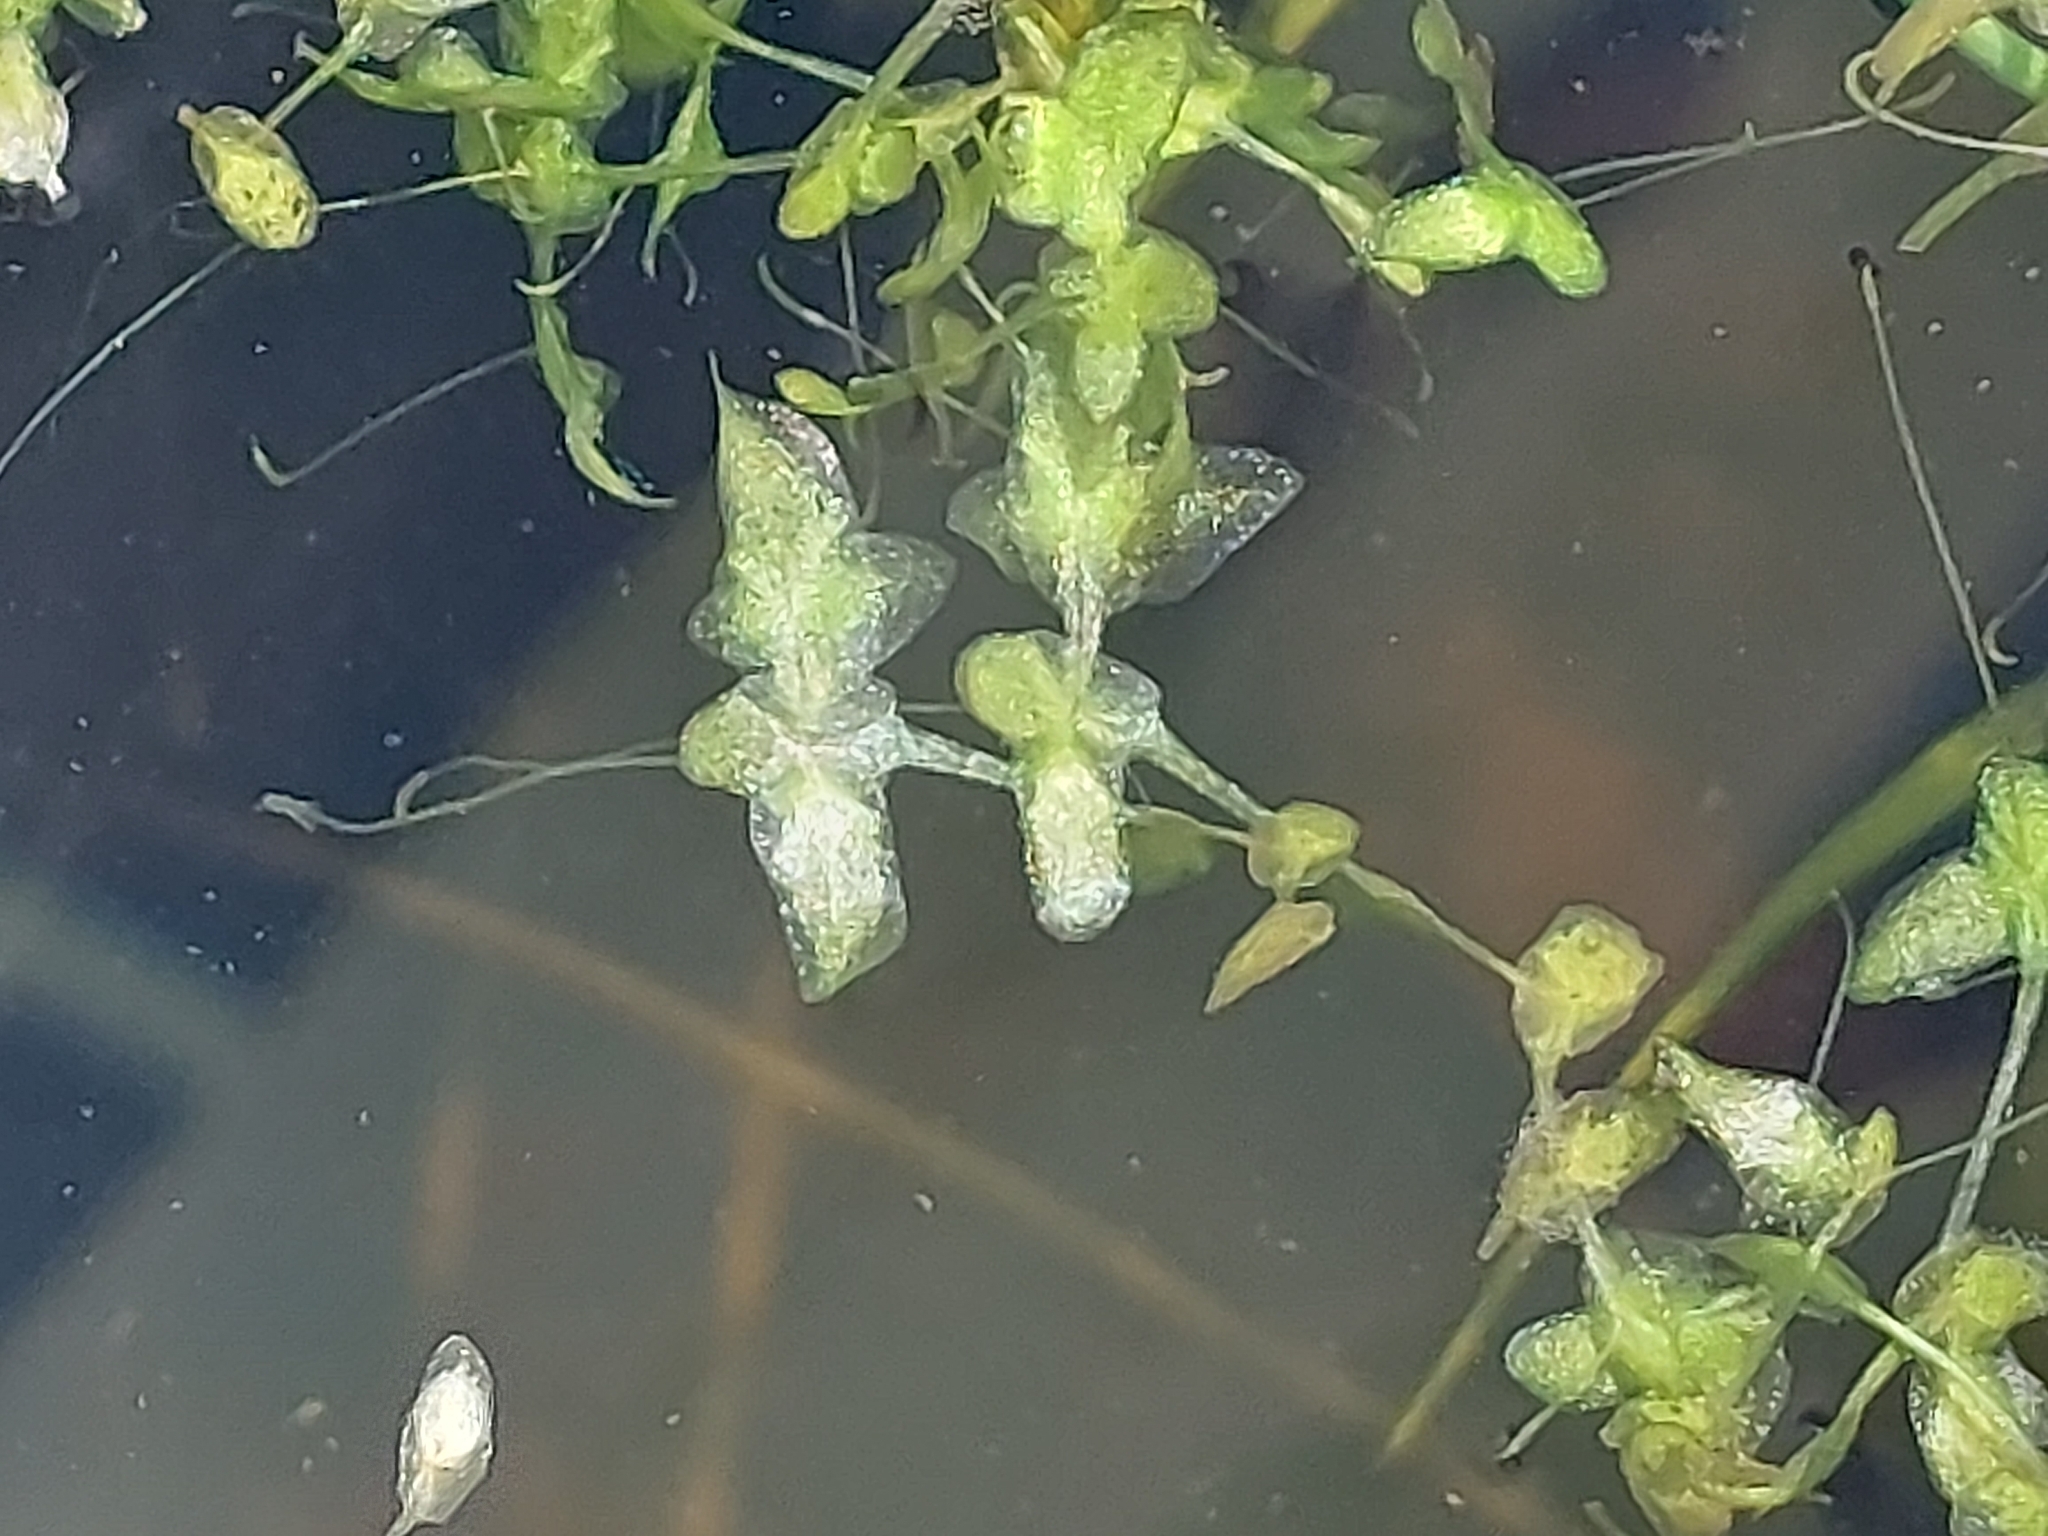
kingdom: Plantae
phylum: Tracheophyta
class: Liliopsida
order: Alismatales
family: Araceae
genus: Lemna
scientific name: Lemna trisulca
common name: Ivy-leaved duckweed
